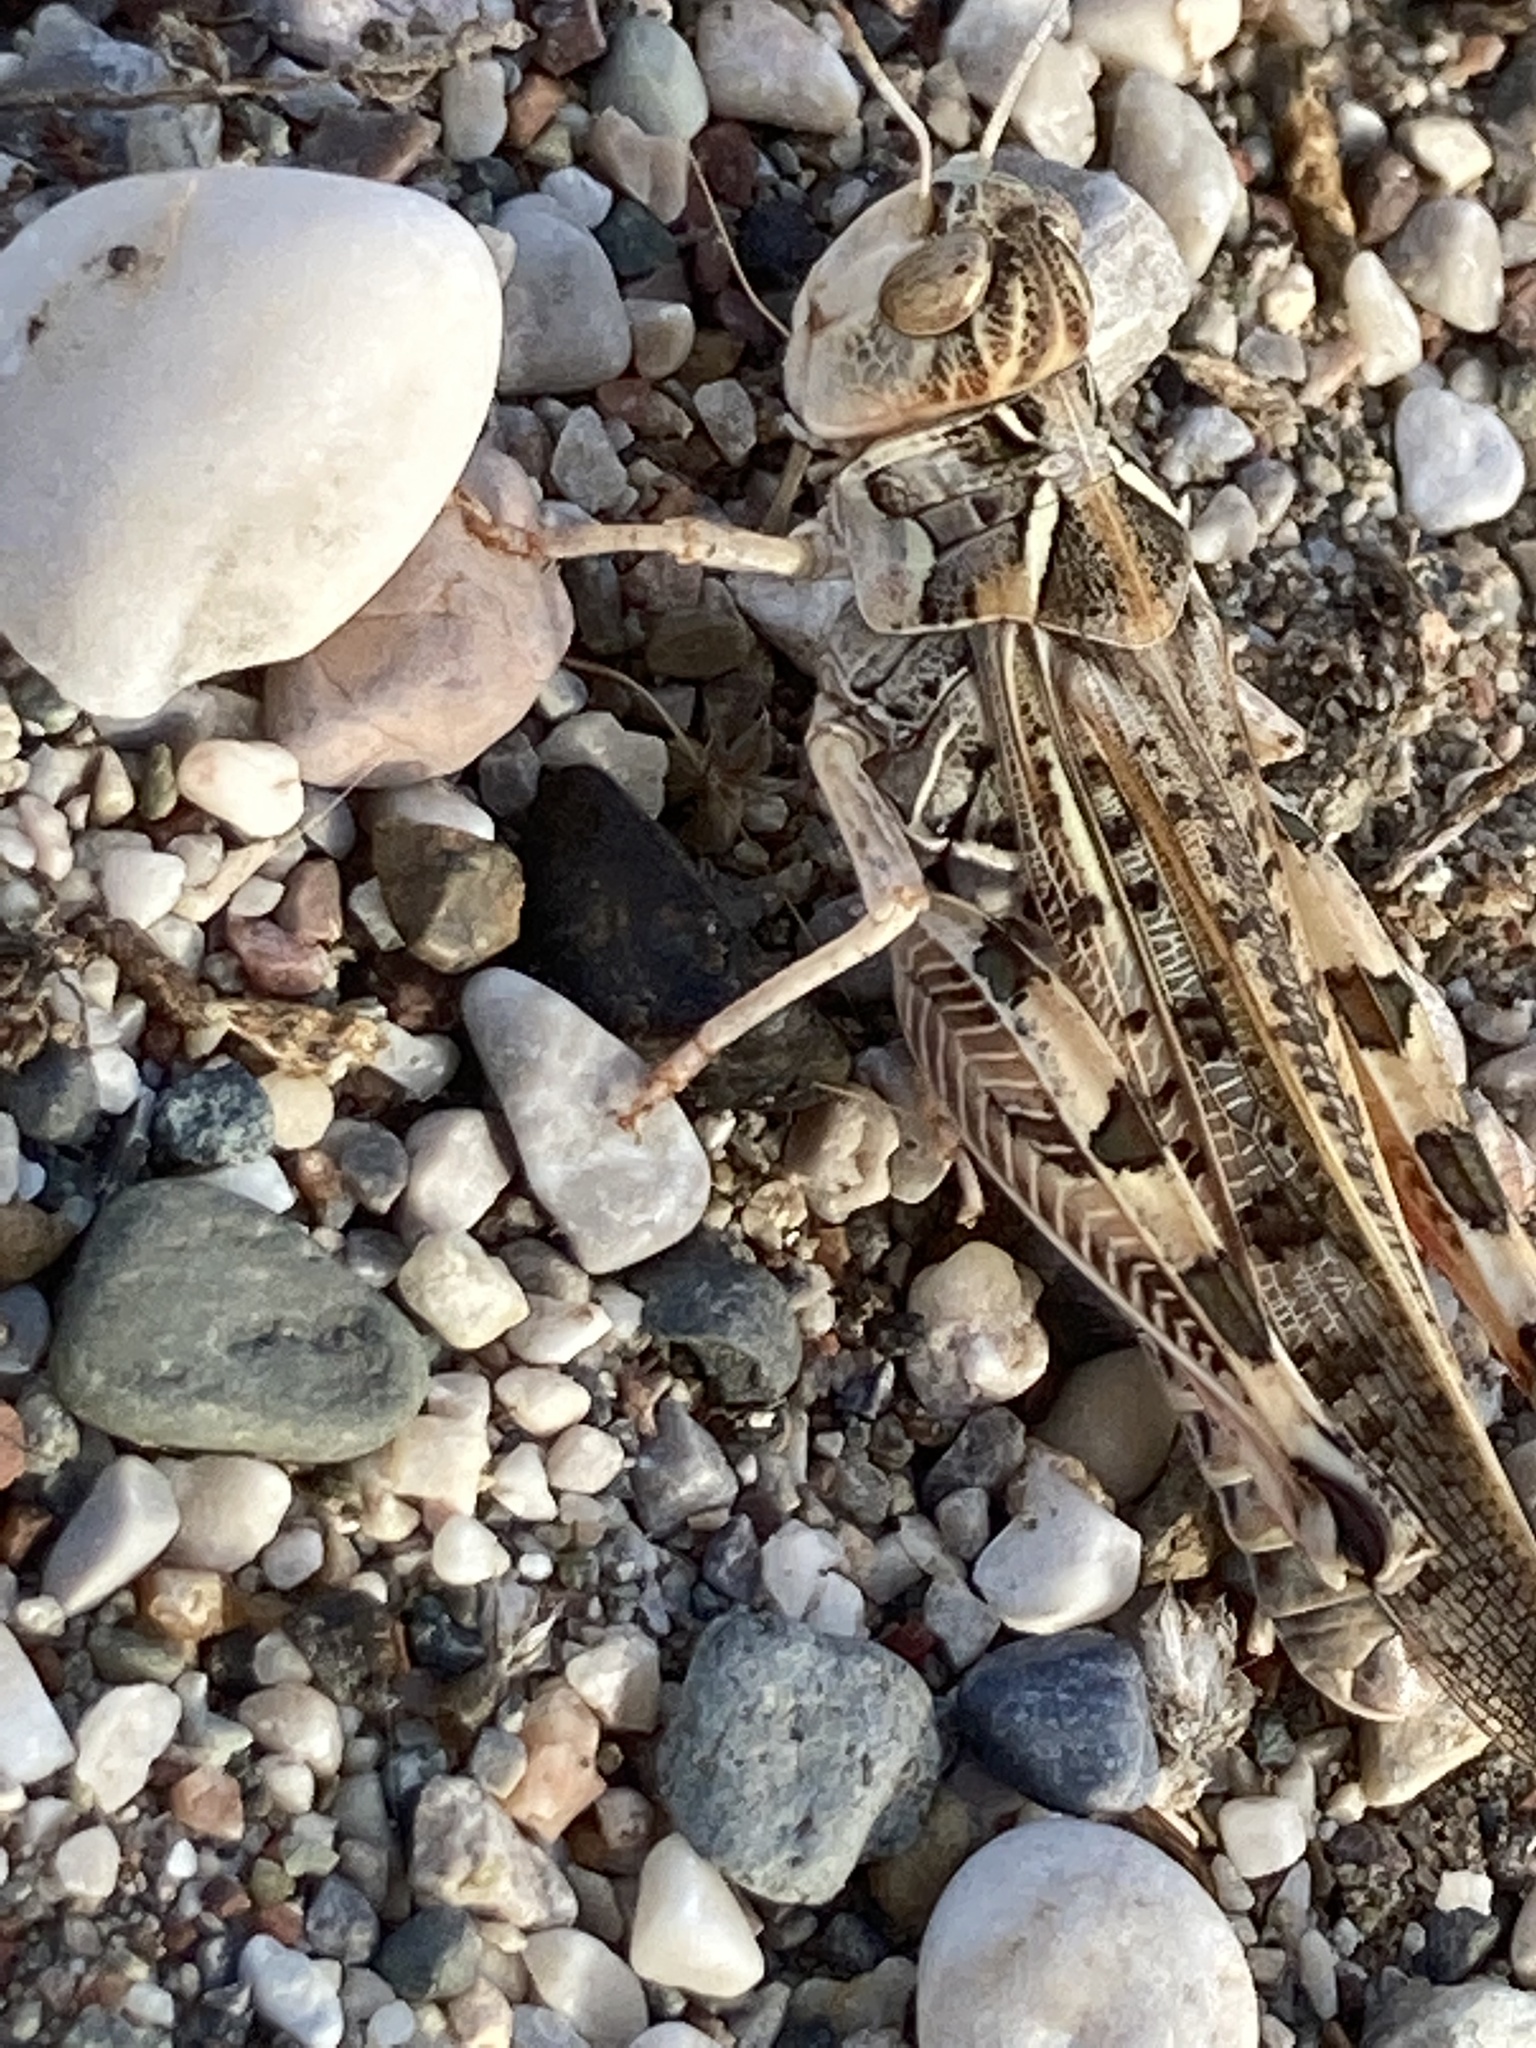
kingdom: Animalia
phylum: Arthropoda
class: Insecta
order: Orthoptera
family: Acrididae
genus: Dociostaurus
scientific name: Dociostaurus maroccanus
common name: Moroccan locust
